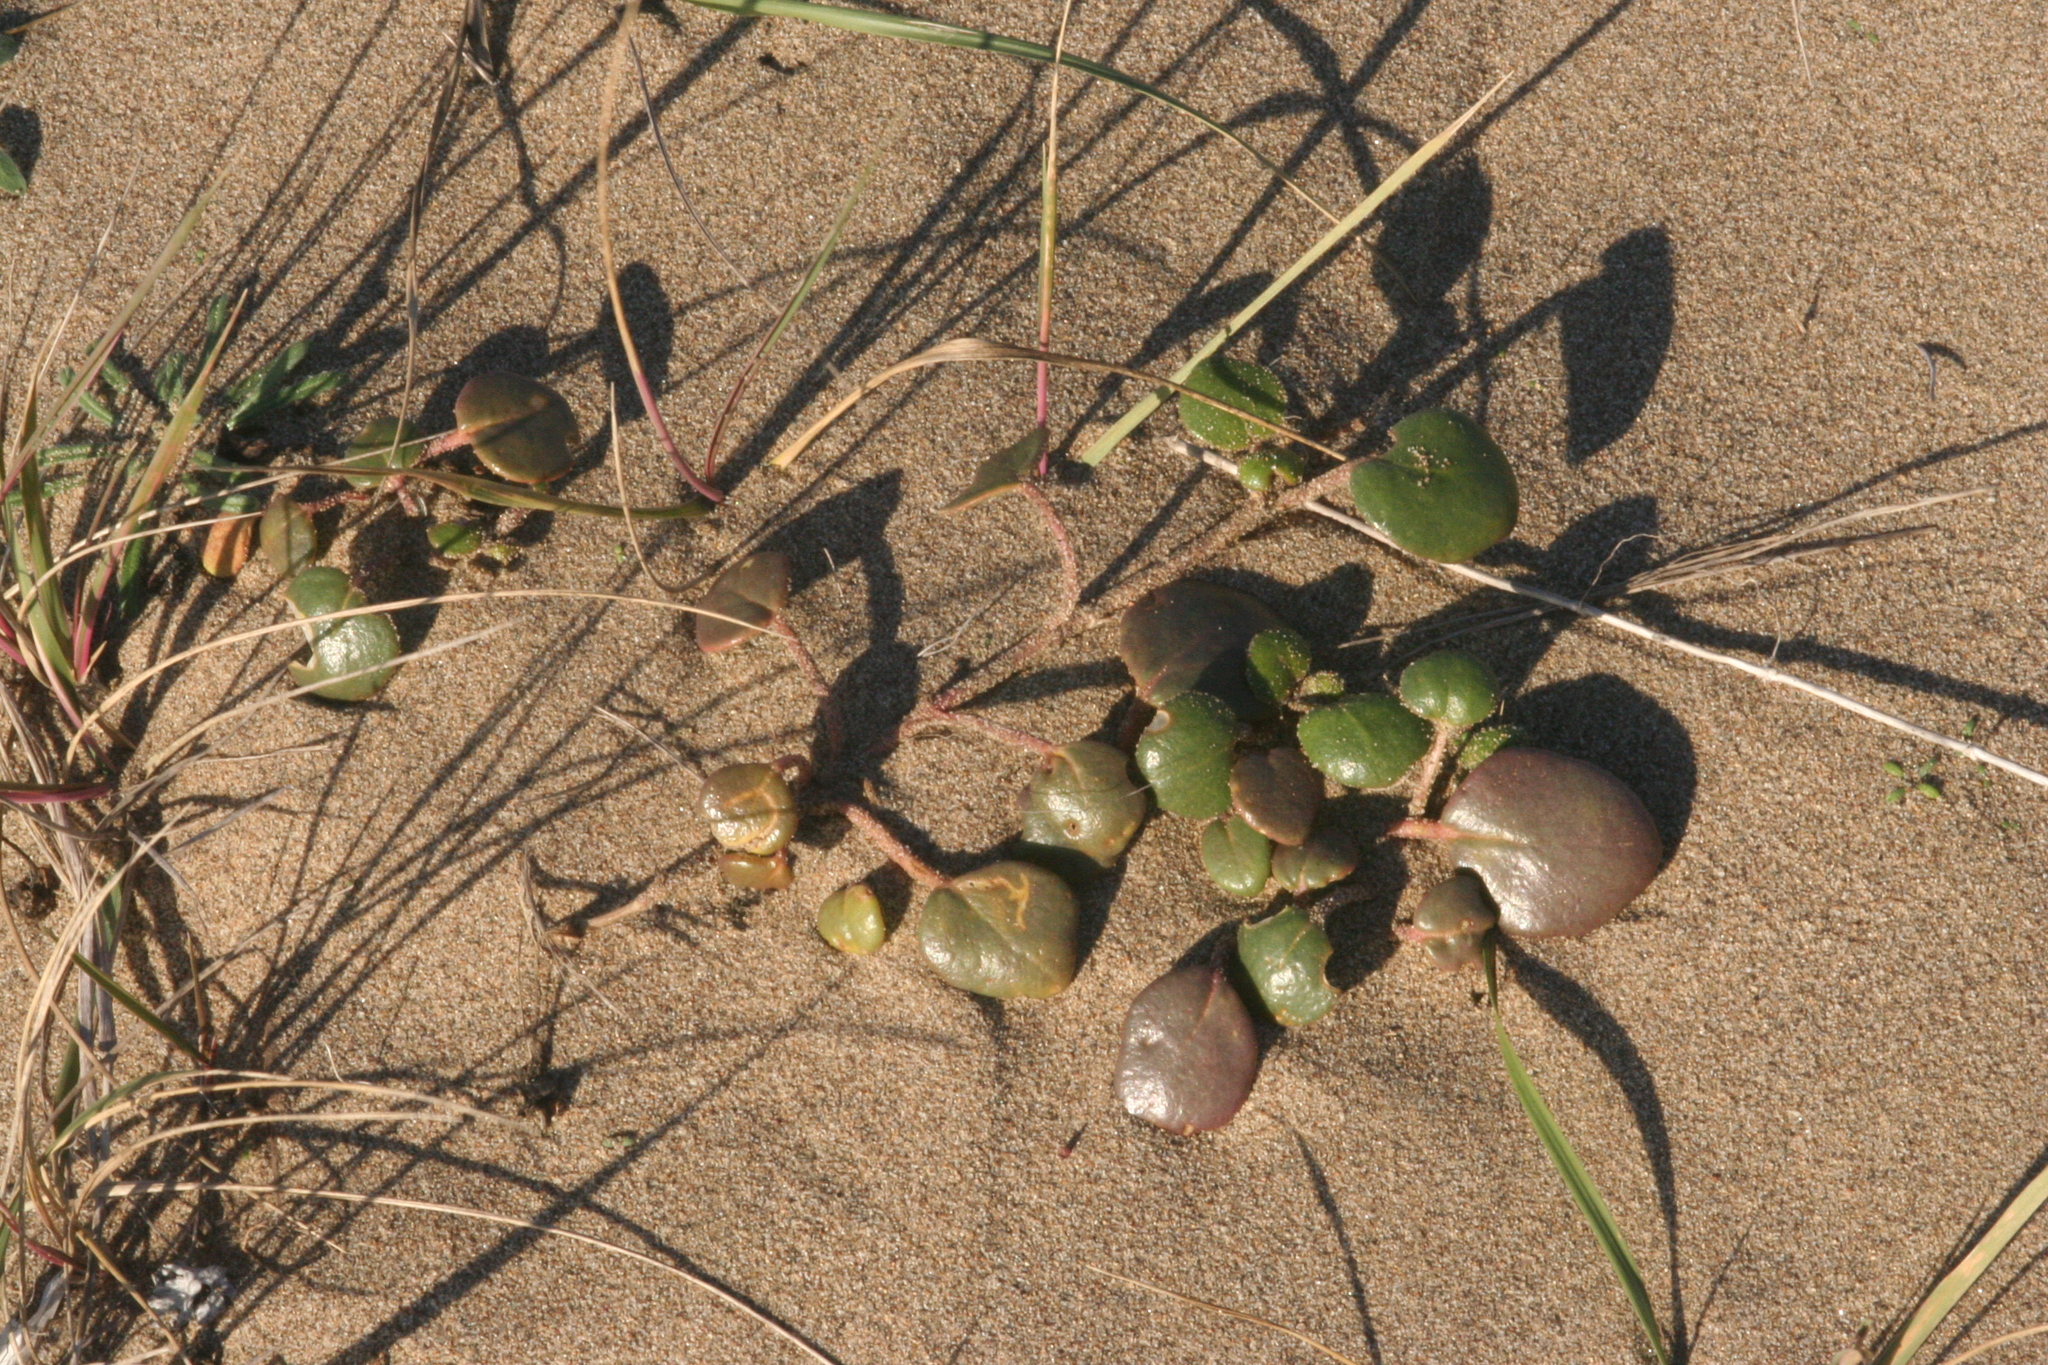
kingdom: Plantae
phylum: Tracheophyta
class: Magnoliopsida
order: Caryophyllales
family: Nyctaginaceae
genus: Abronia
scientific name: Abronia latifolia
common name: Yellow sand-verbena
